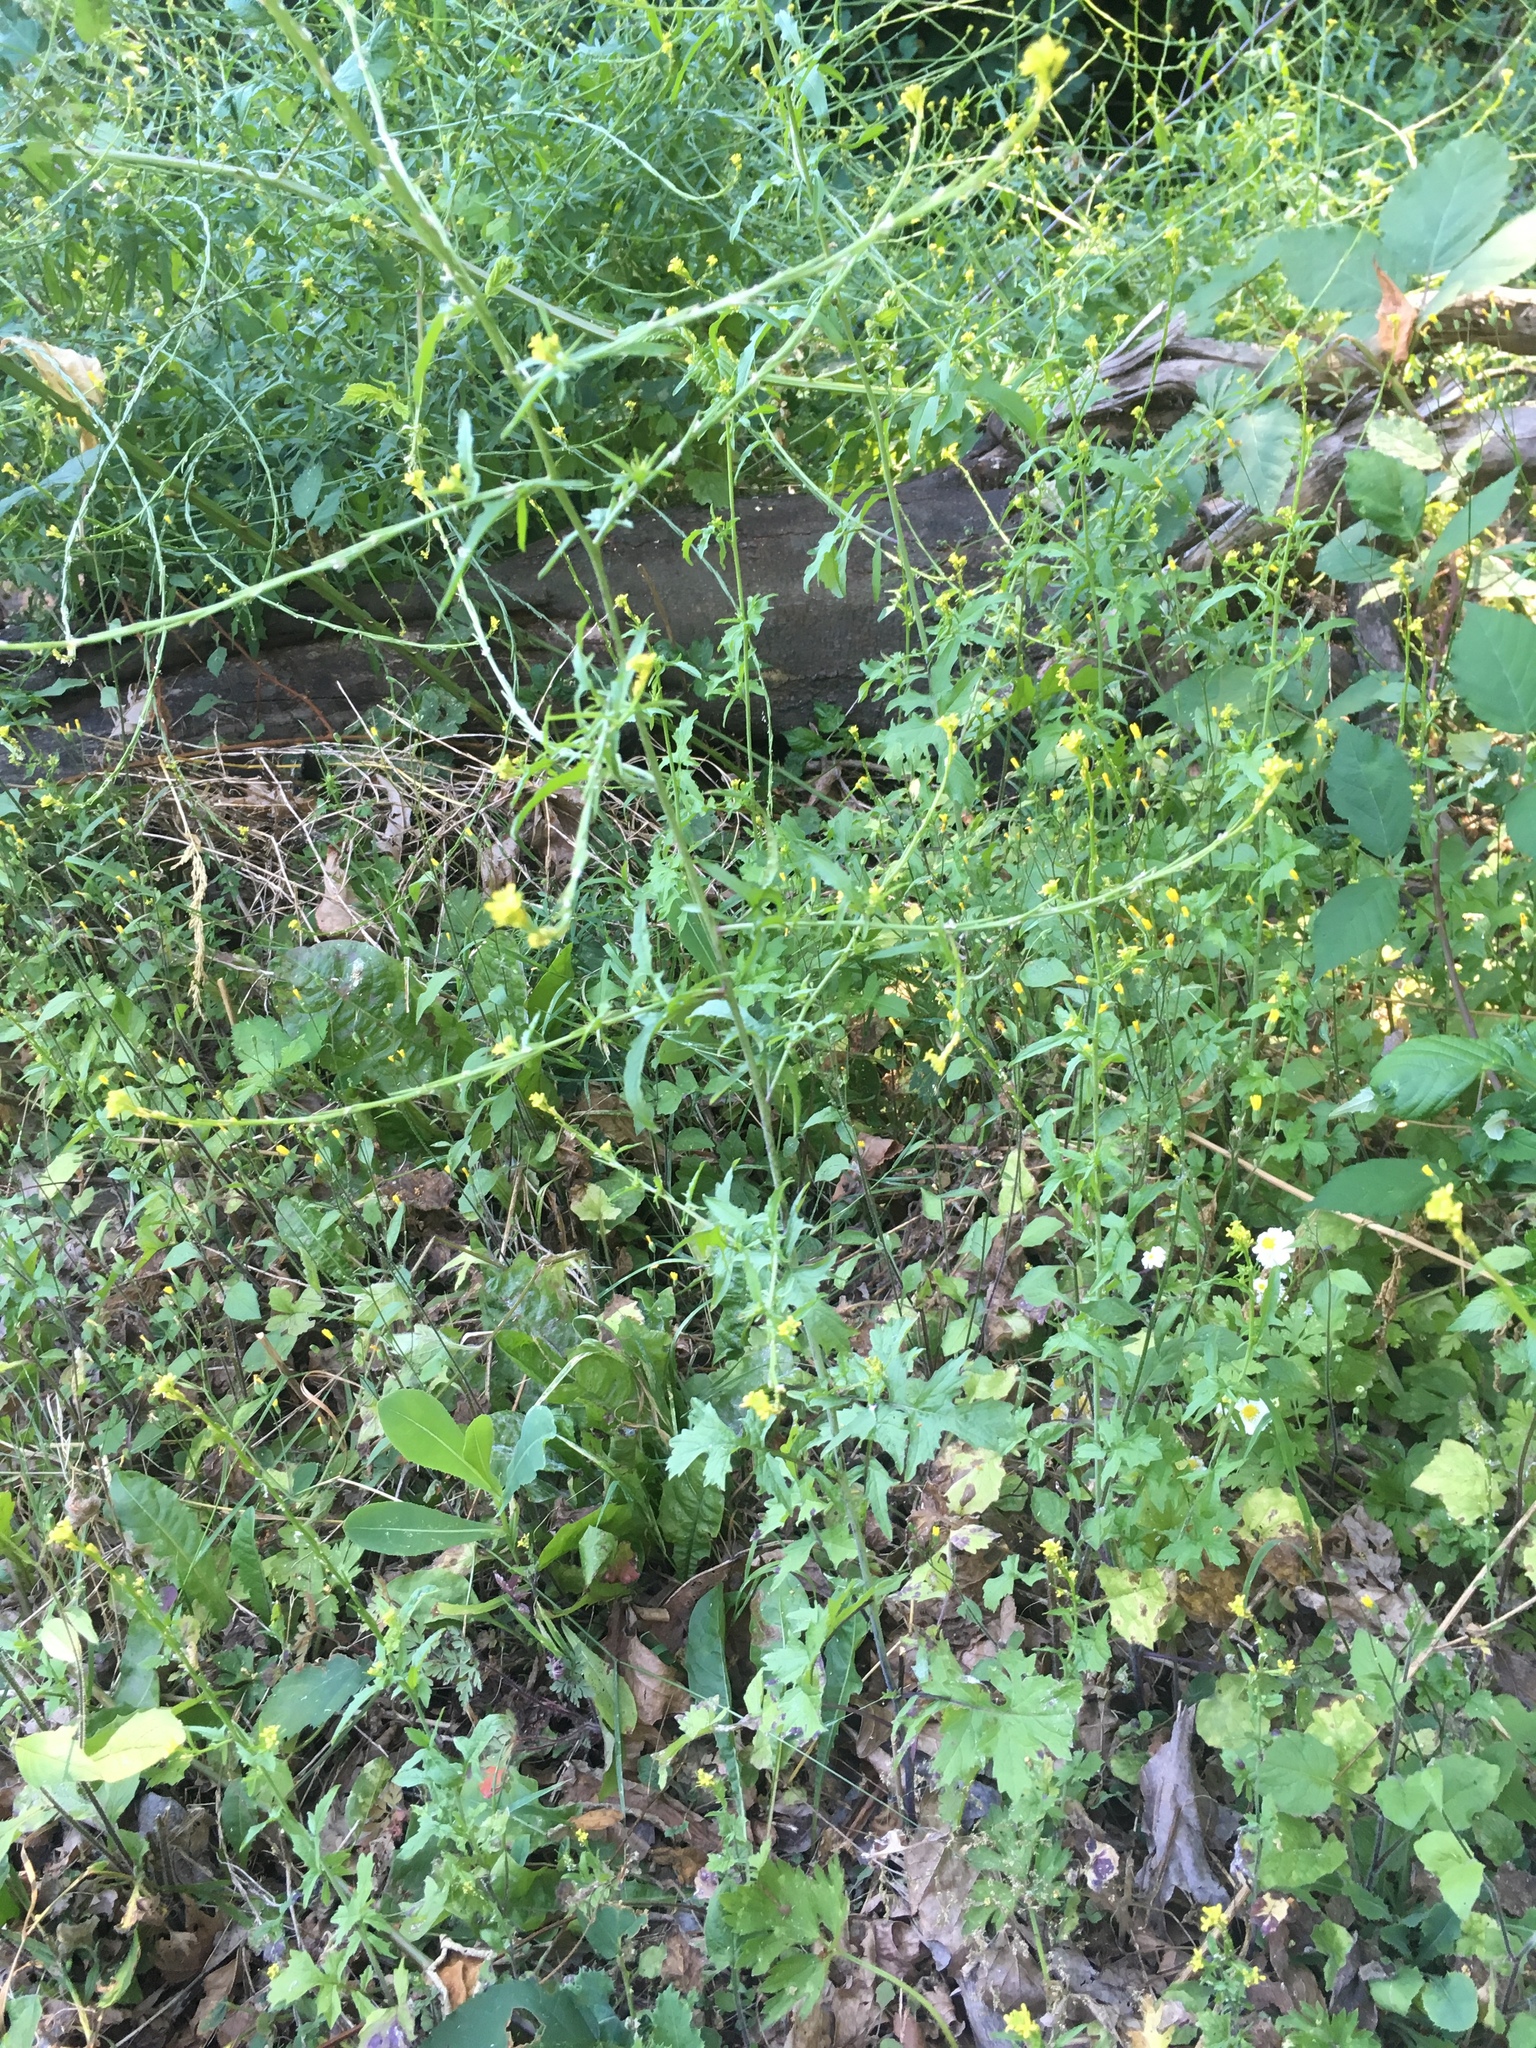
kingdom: Plantae
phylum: Tracheophyta
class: Magnoliopsida
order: Brassicales
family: Brassicaceae
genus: Sisymbrium
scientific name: Sisymbrium officinale
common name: Hedge mustard
